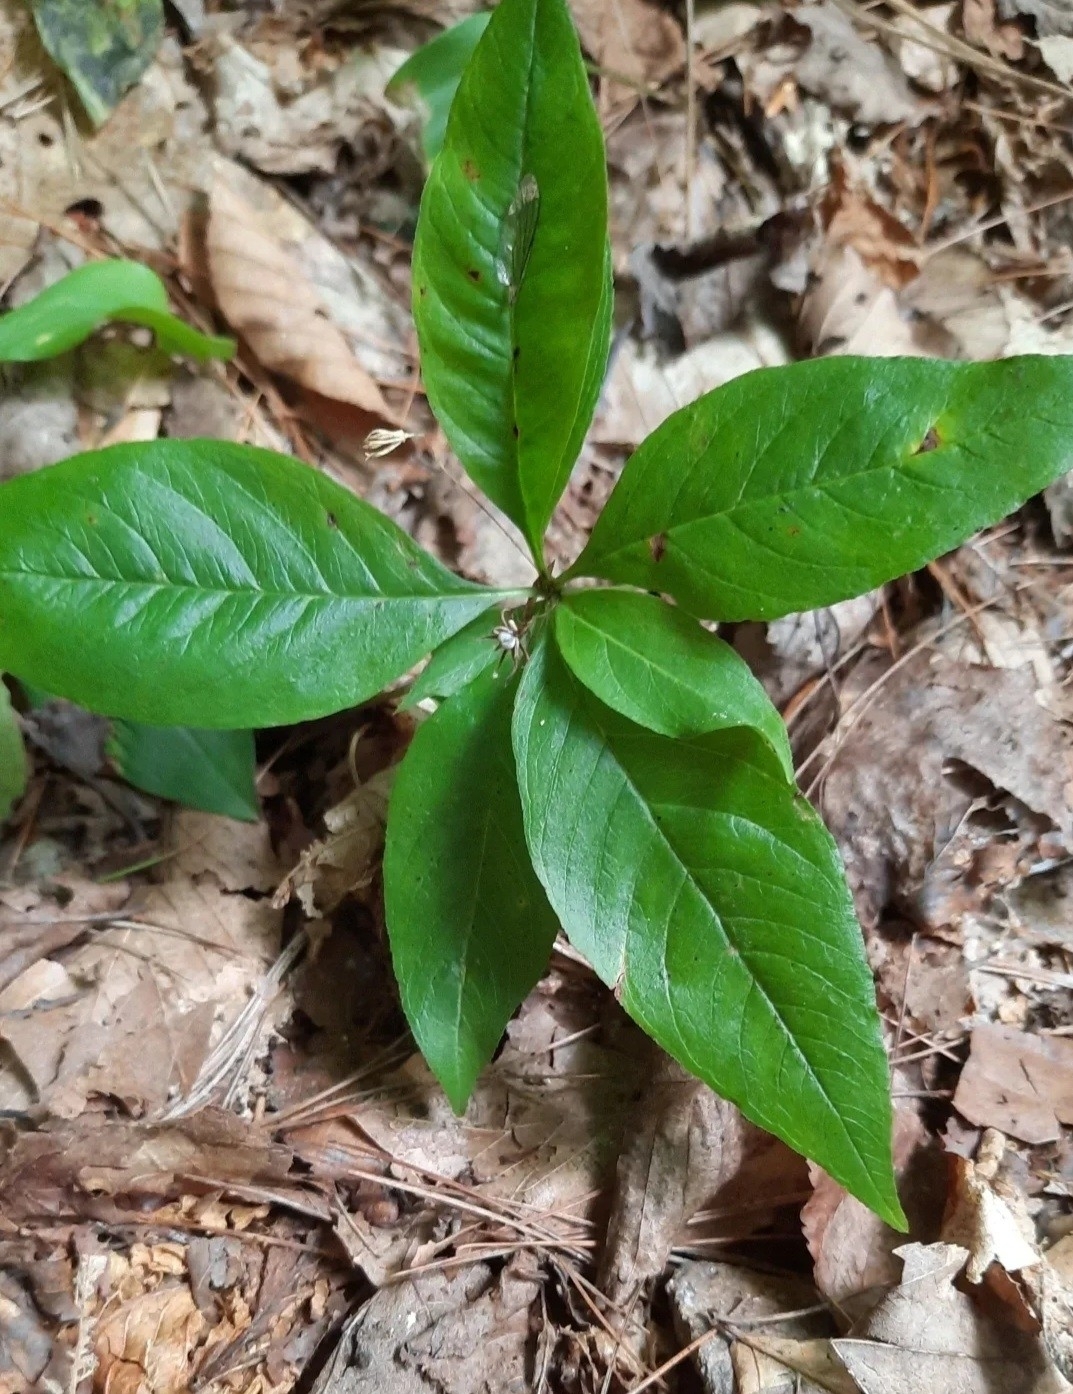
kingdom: Plantae
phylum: Tracheophyta
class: Magnoliopsida
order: Ericales
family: Primulaceae
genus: Lysimachia
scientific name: Lysimachia borealis
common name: American starflower
